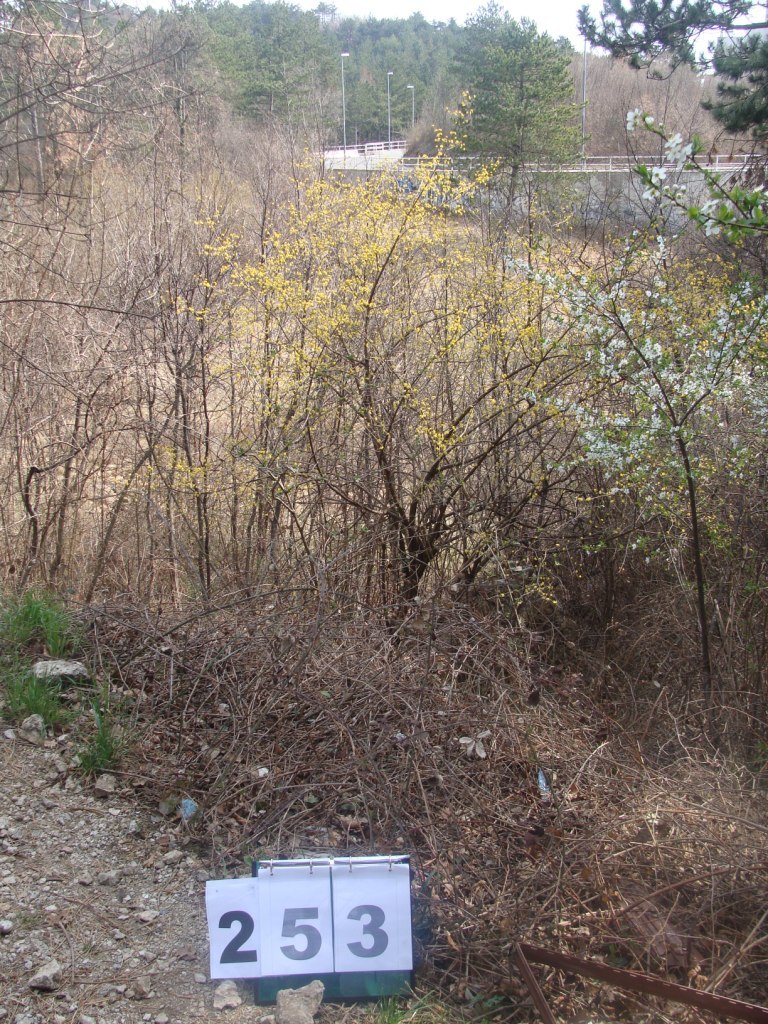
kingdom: Plantae
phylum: Tracheophyta
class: Magnoliopsida
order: Cornales
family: Cornaceae
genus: Cornus
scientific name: Cornus mas
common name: Cornelian-cherry
